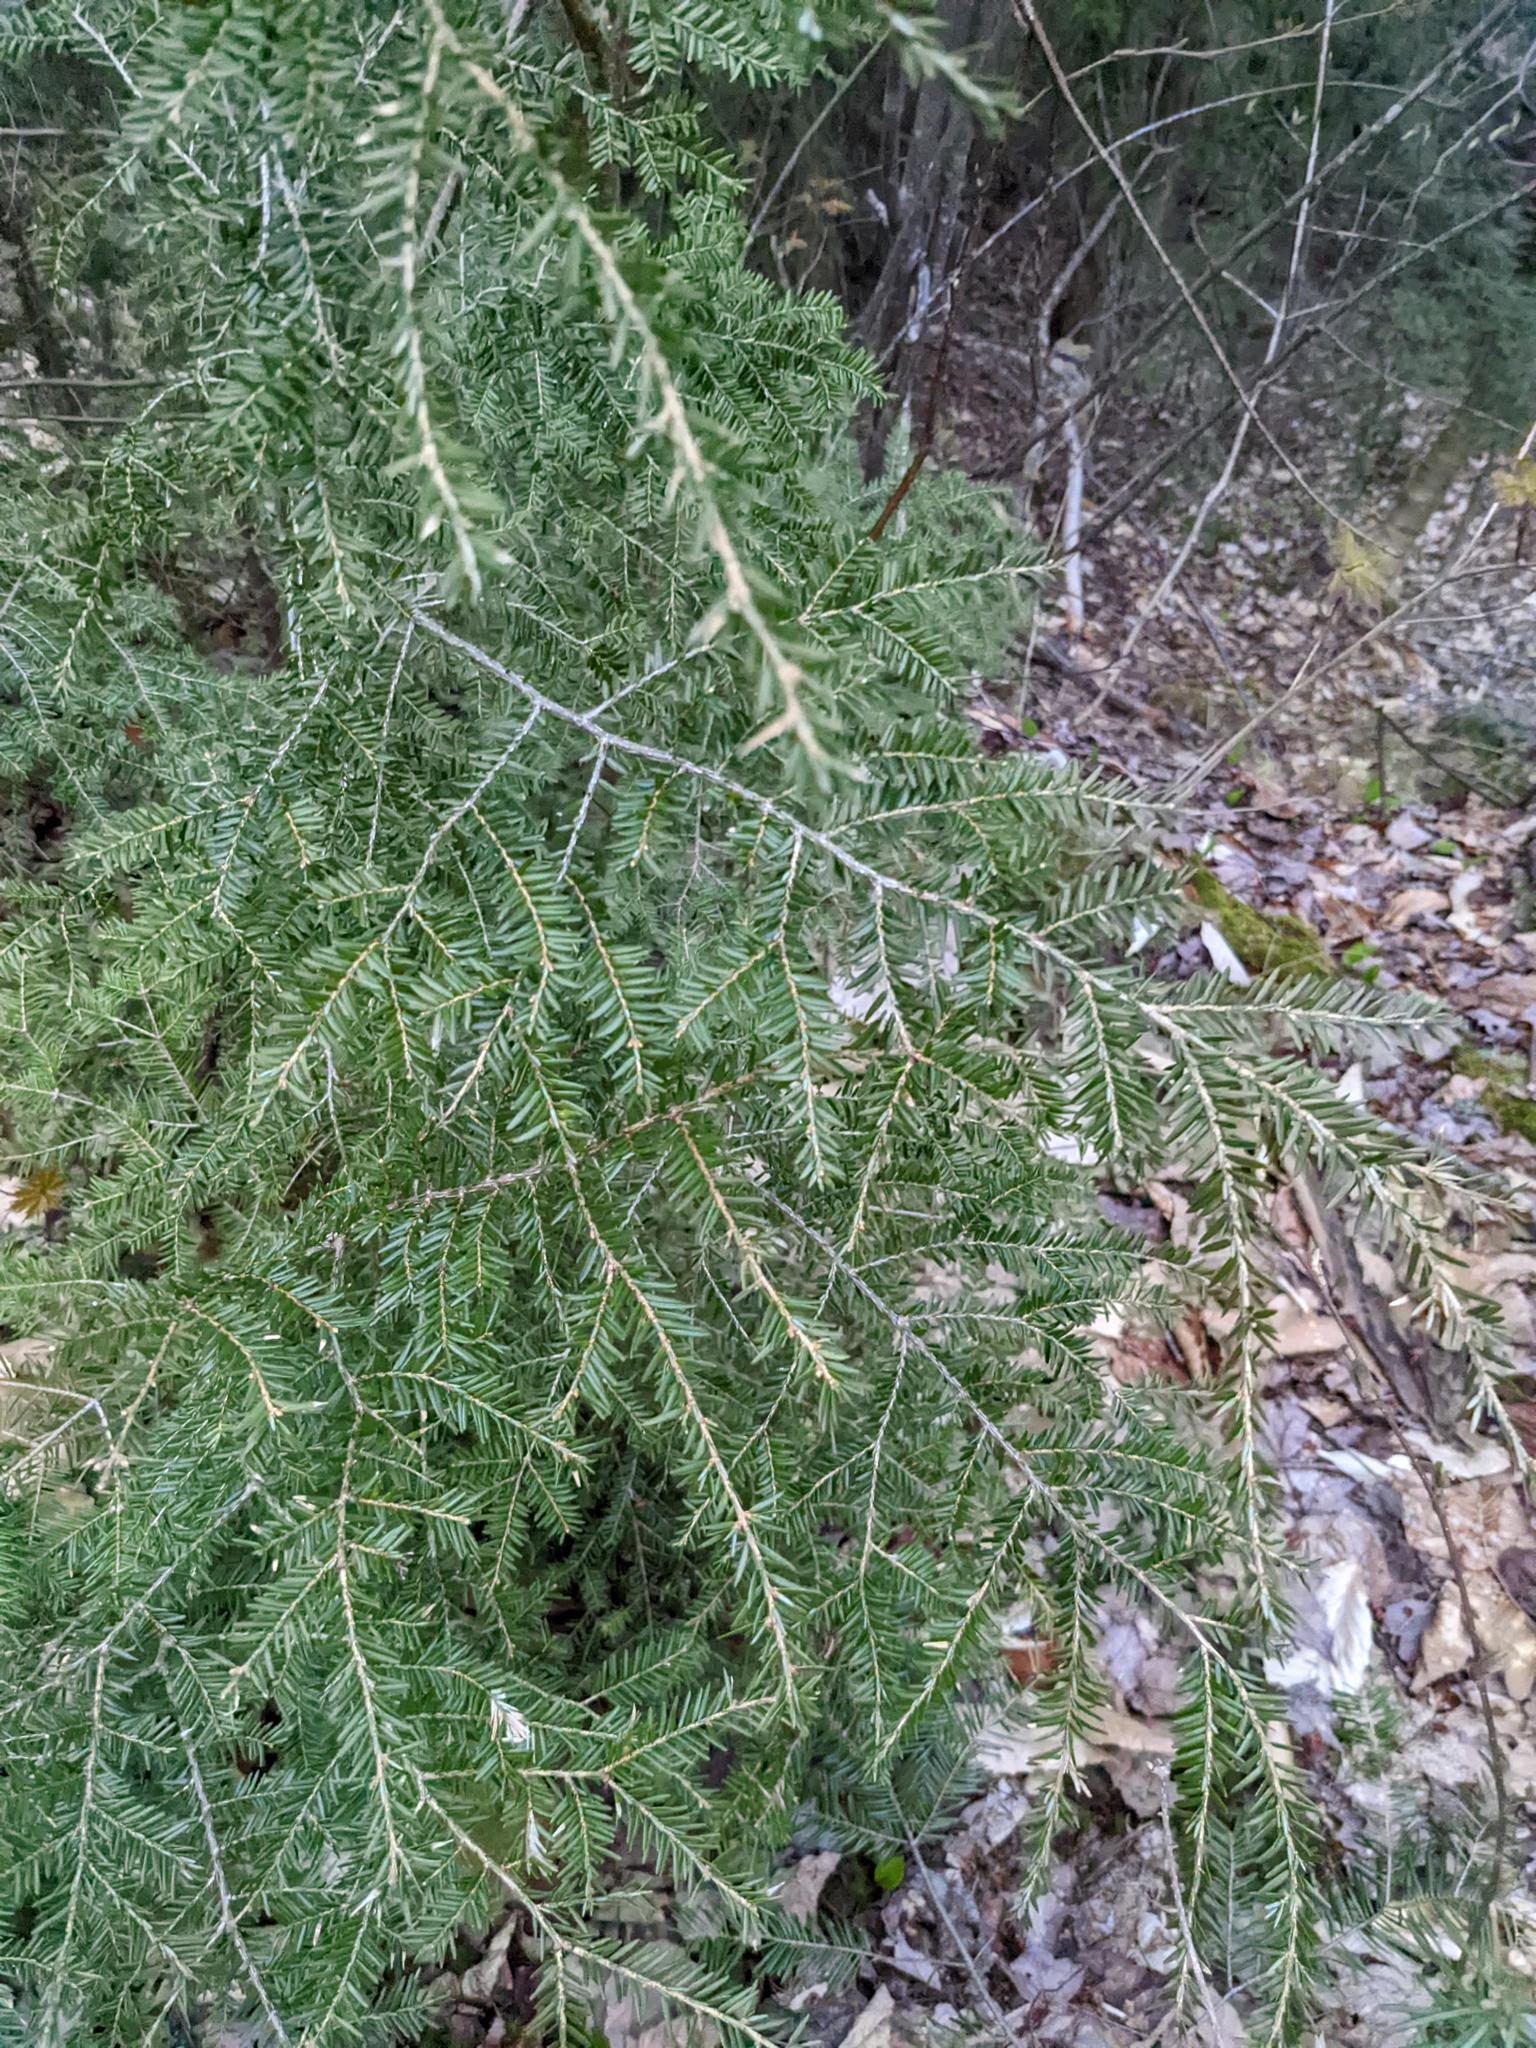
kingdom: Plantae
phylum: Tracheophyta
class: Pinopsida
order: Pinales
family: Pinaceae
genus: Tsuga
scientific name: Tsuga canadensis
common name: Eastern hemlock
